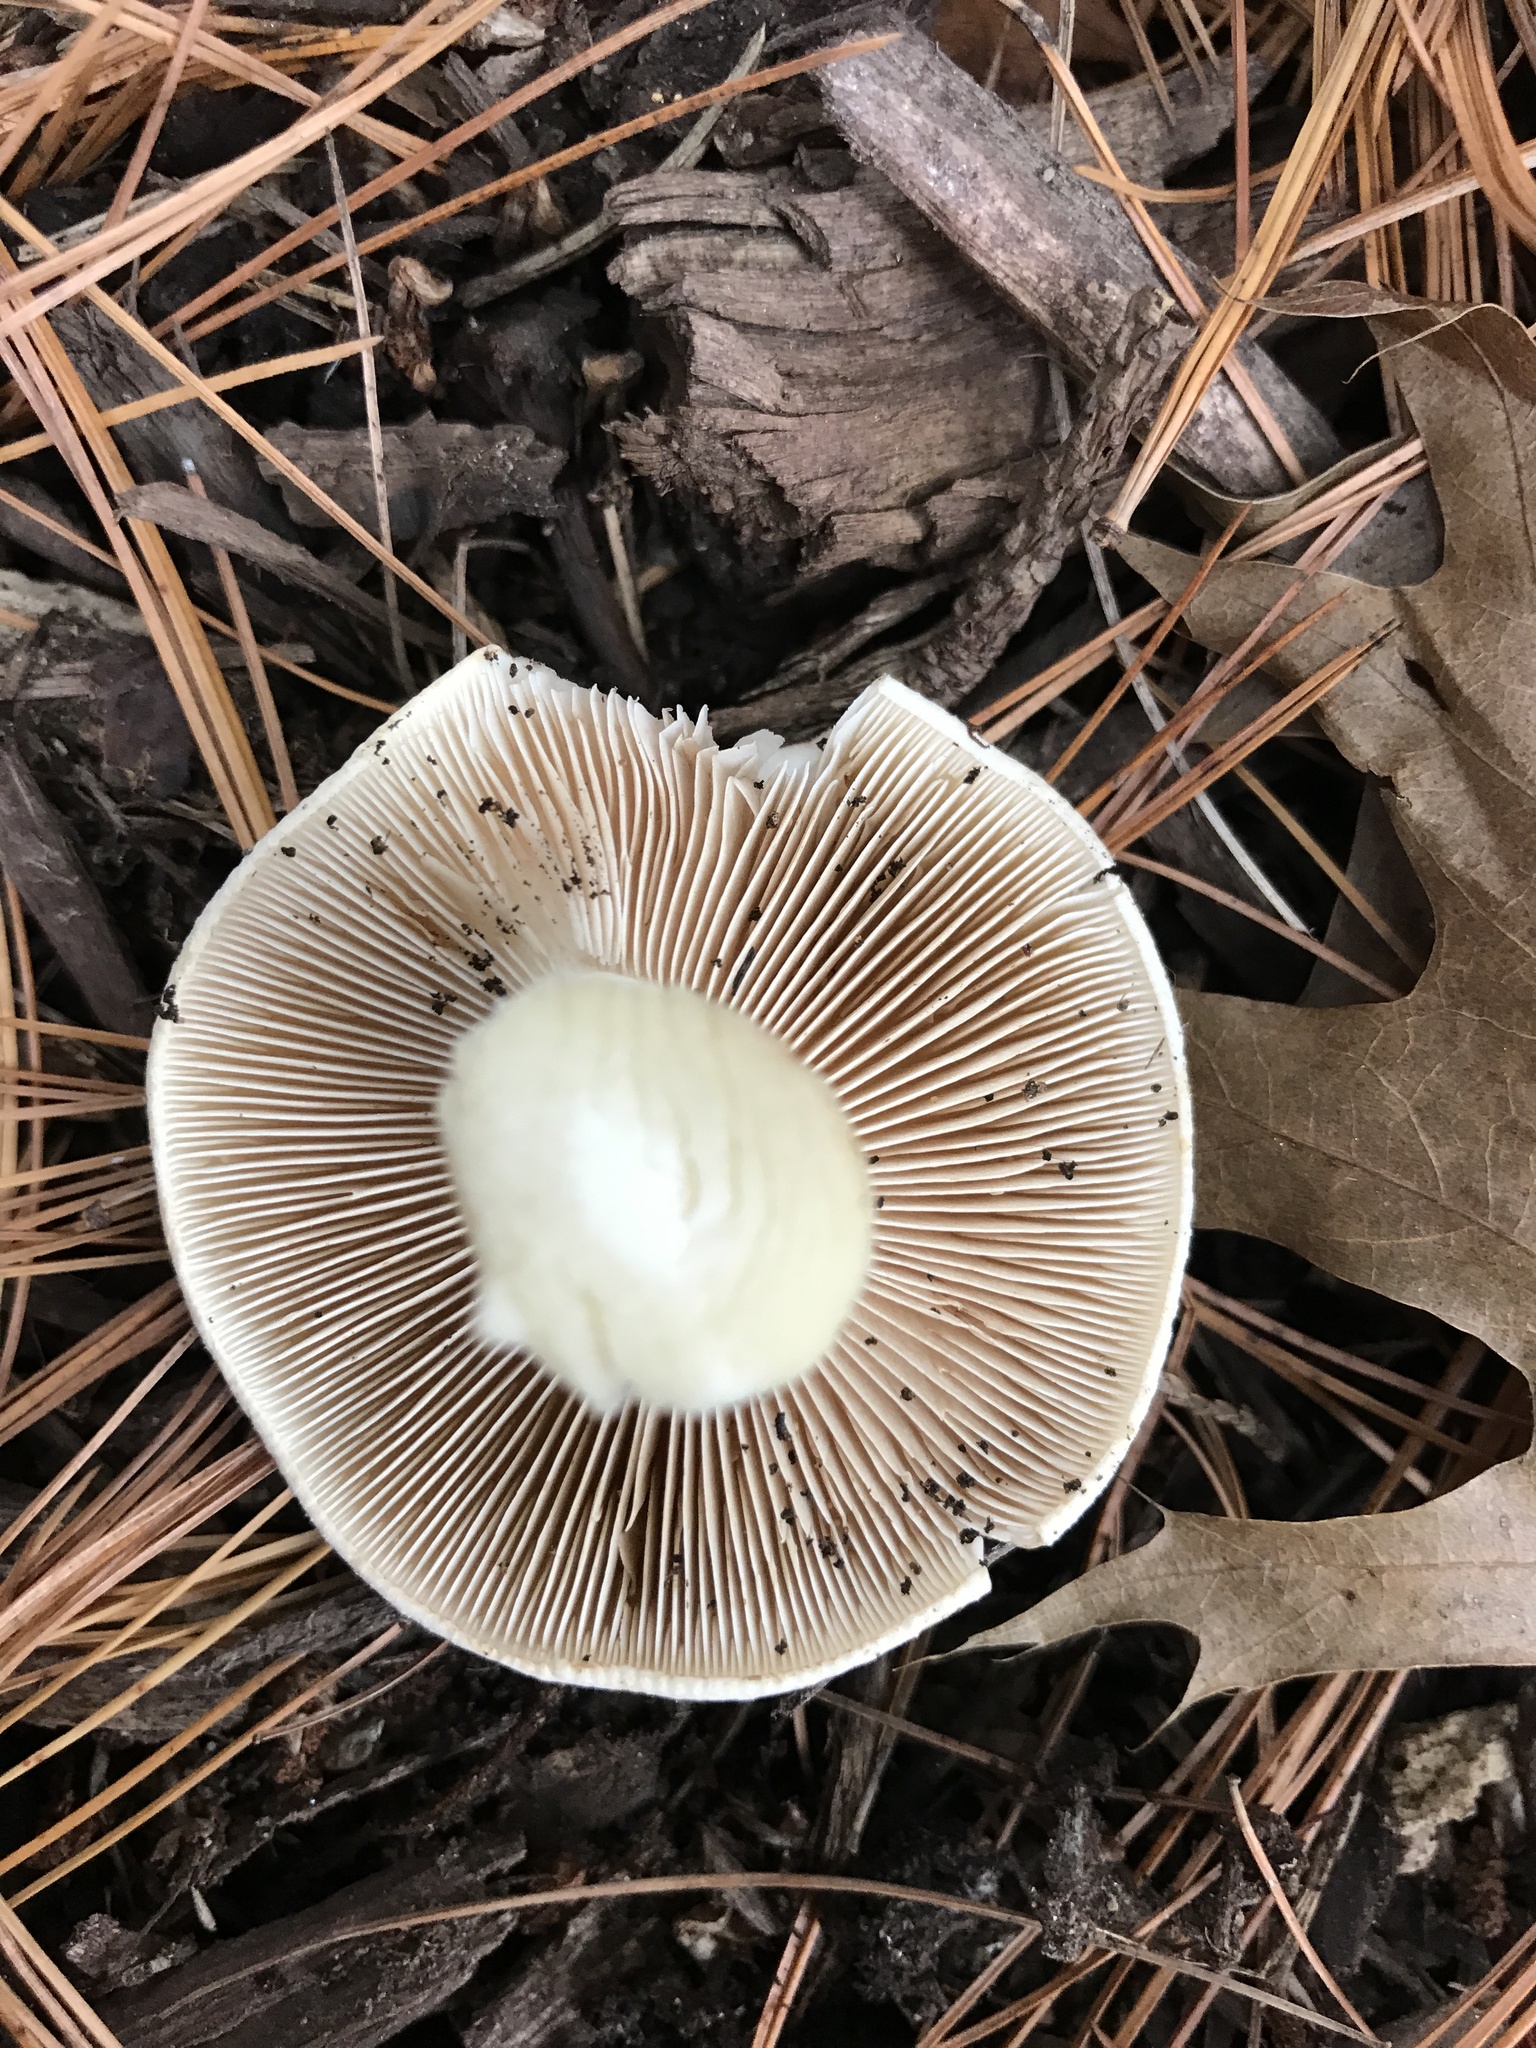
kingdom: Fungi
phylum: Basidiomycota
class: Agaricomycetes
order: Agaricales
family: Hymenogastraceae
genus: Hebeloma
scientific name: Hebeloma crustuliniforme
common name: Poison pie
